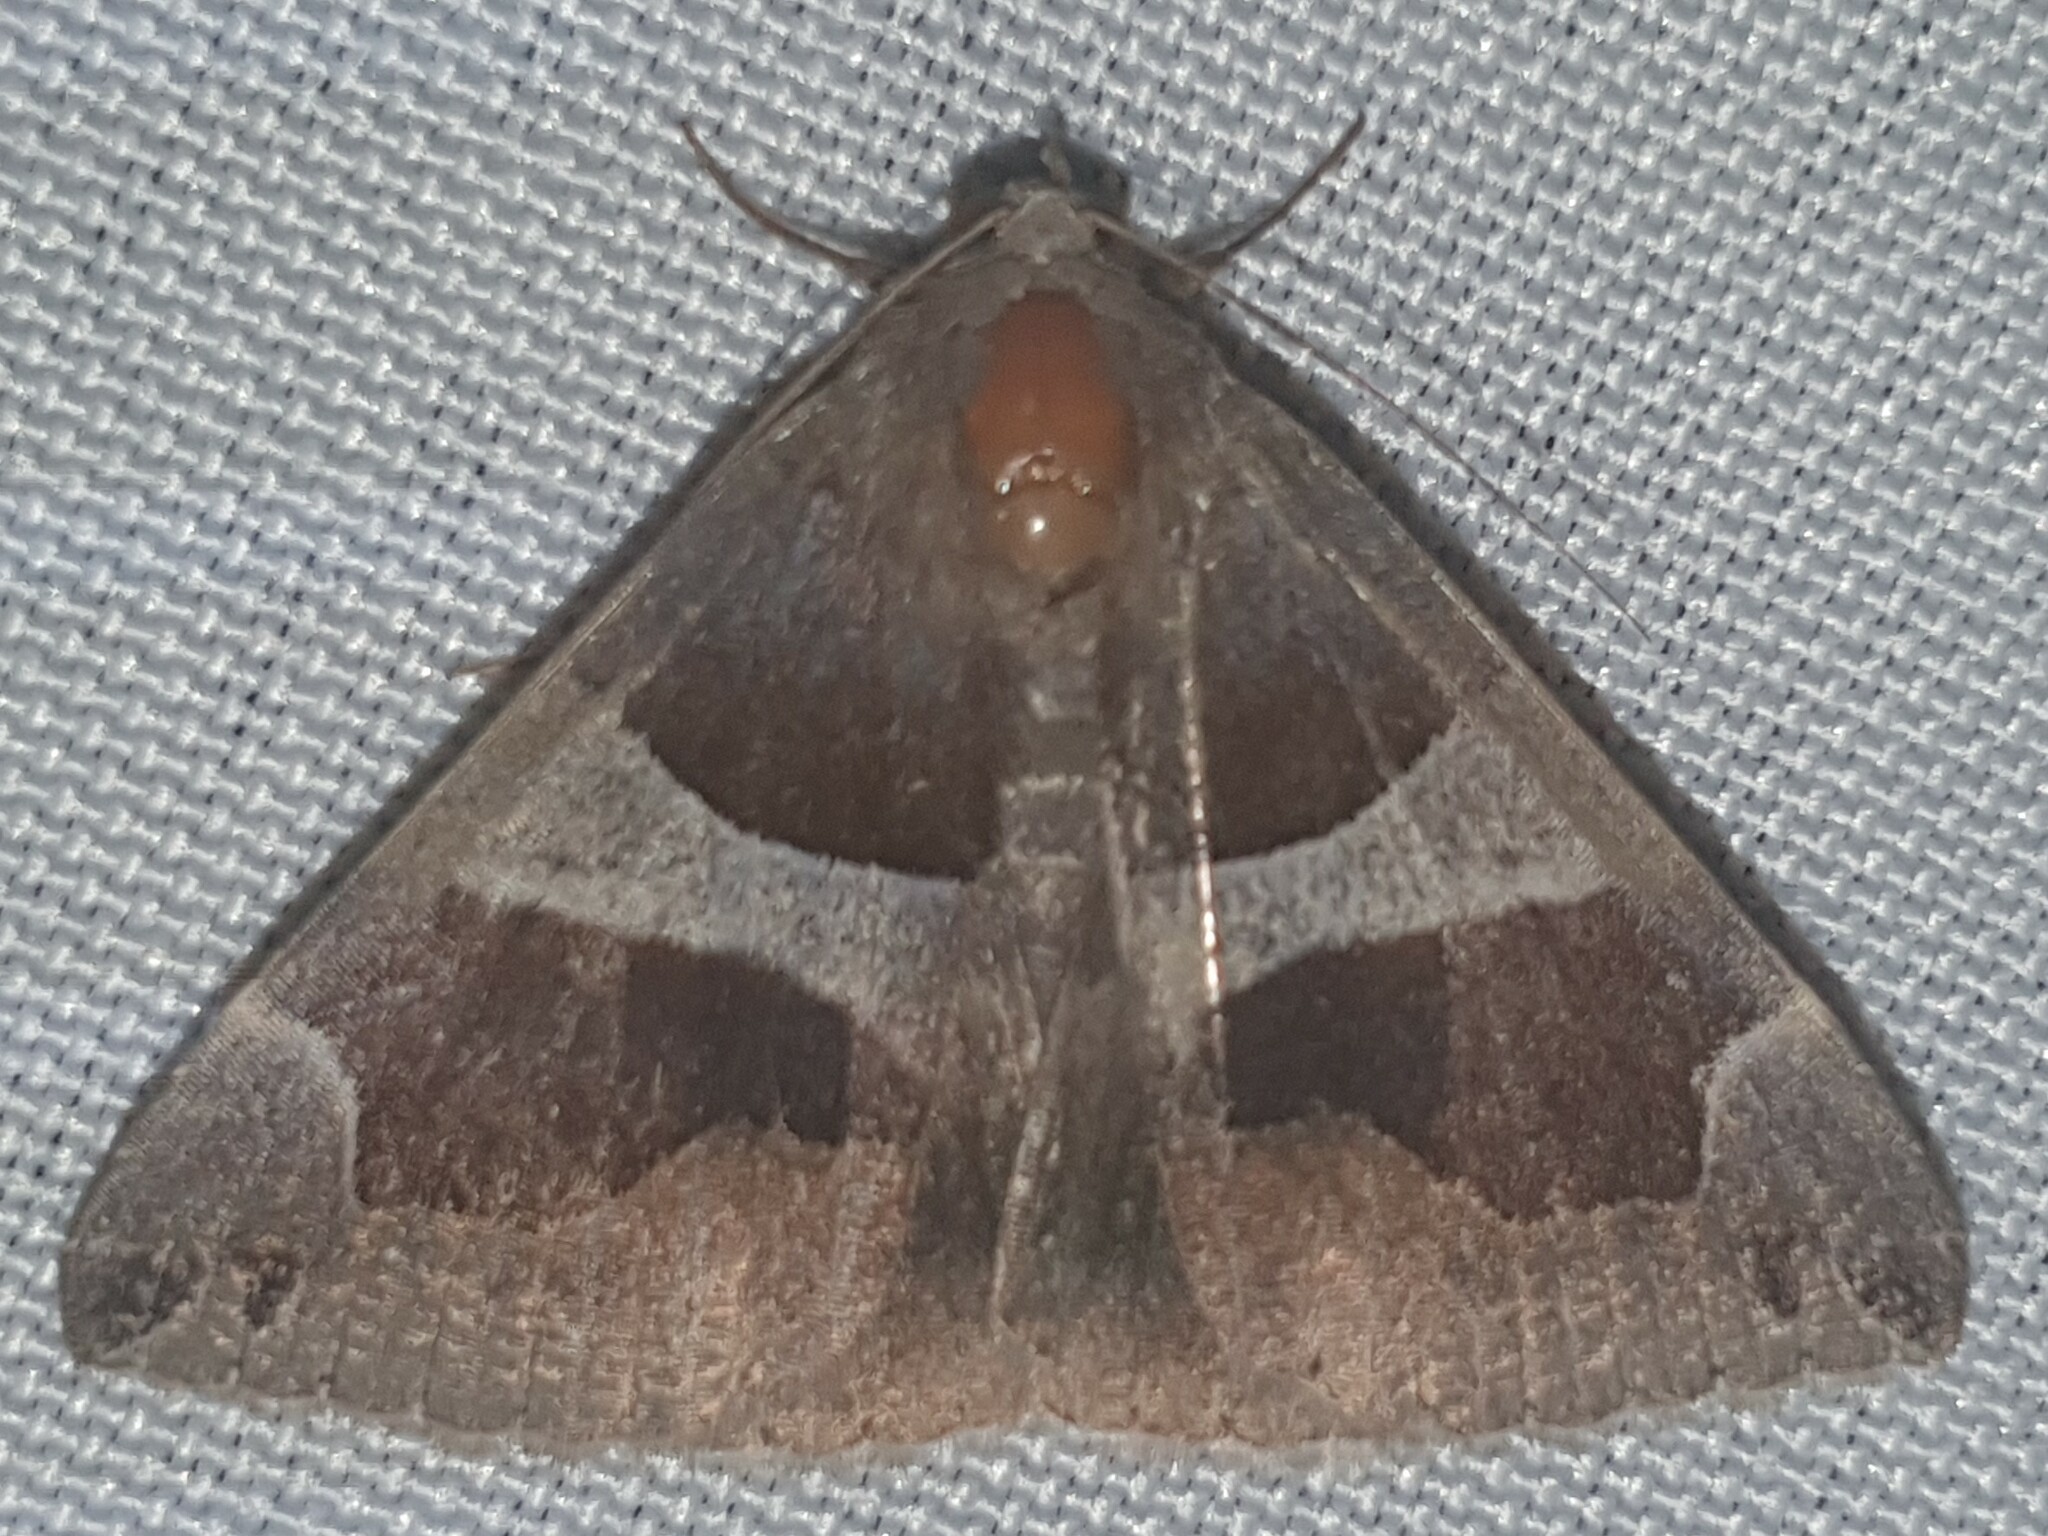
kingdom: Animalia
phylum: Arthropoda
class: Insecta
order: Lepidoptera
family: Erebidae
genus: Dysgonia
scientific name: Dysgonia algira
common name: Passenger
